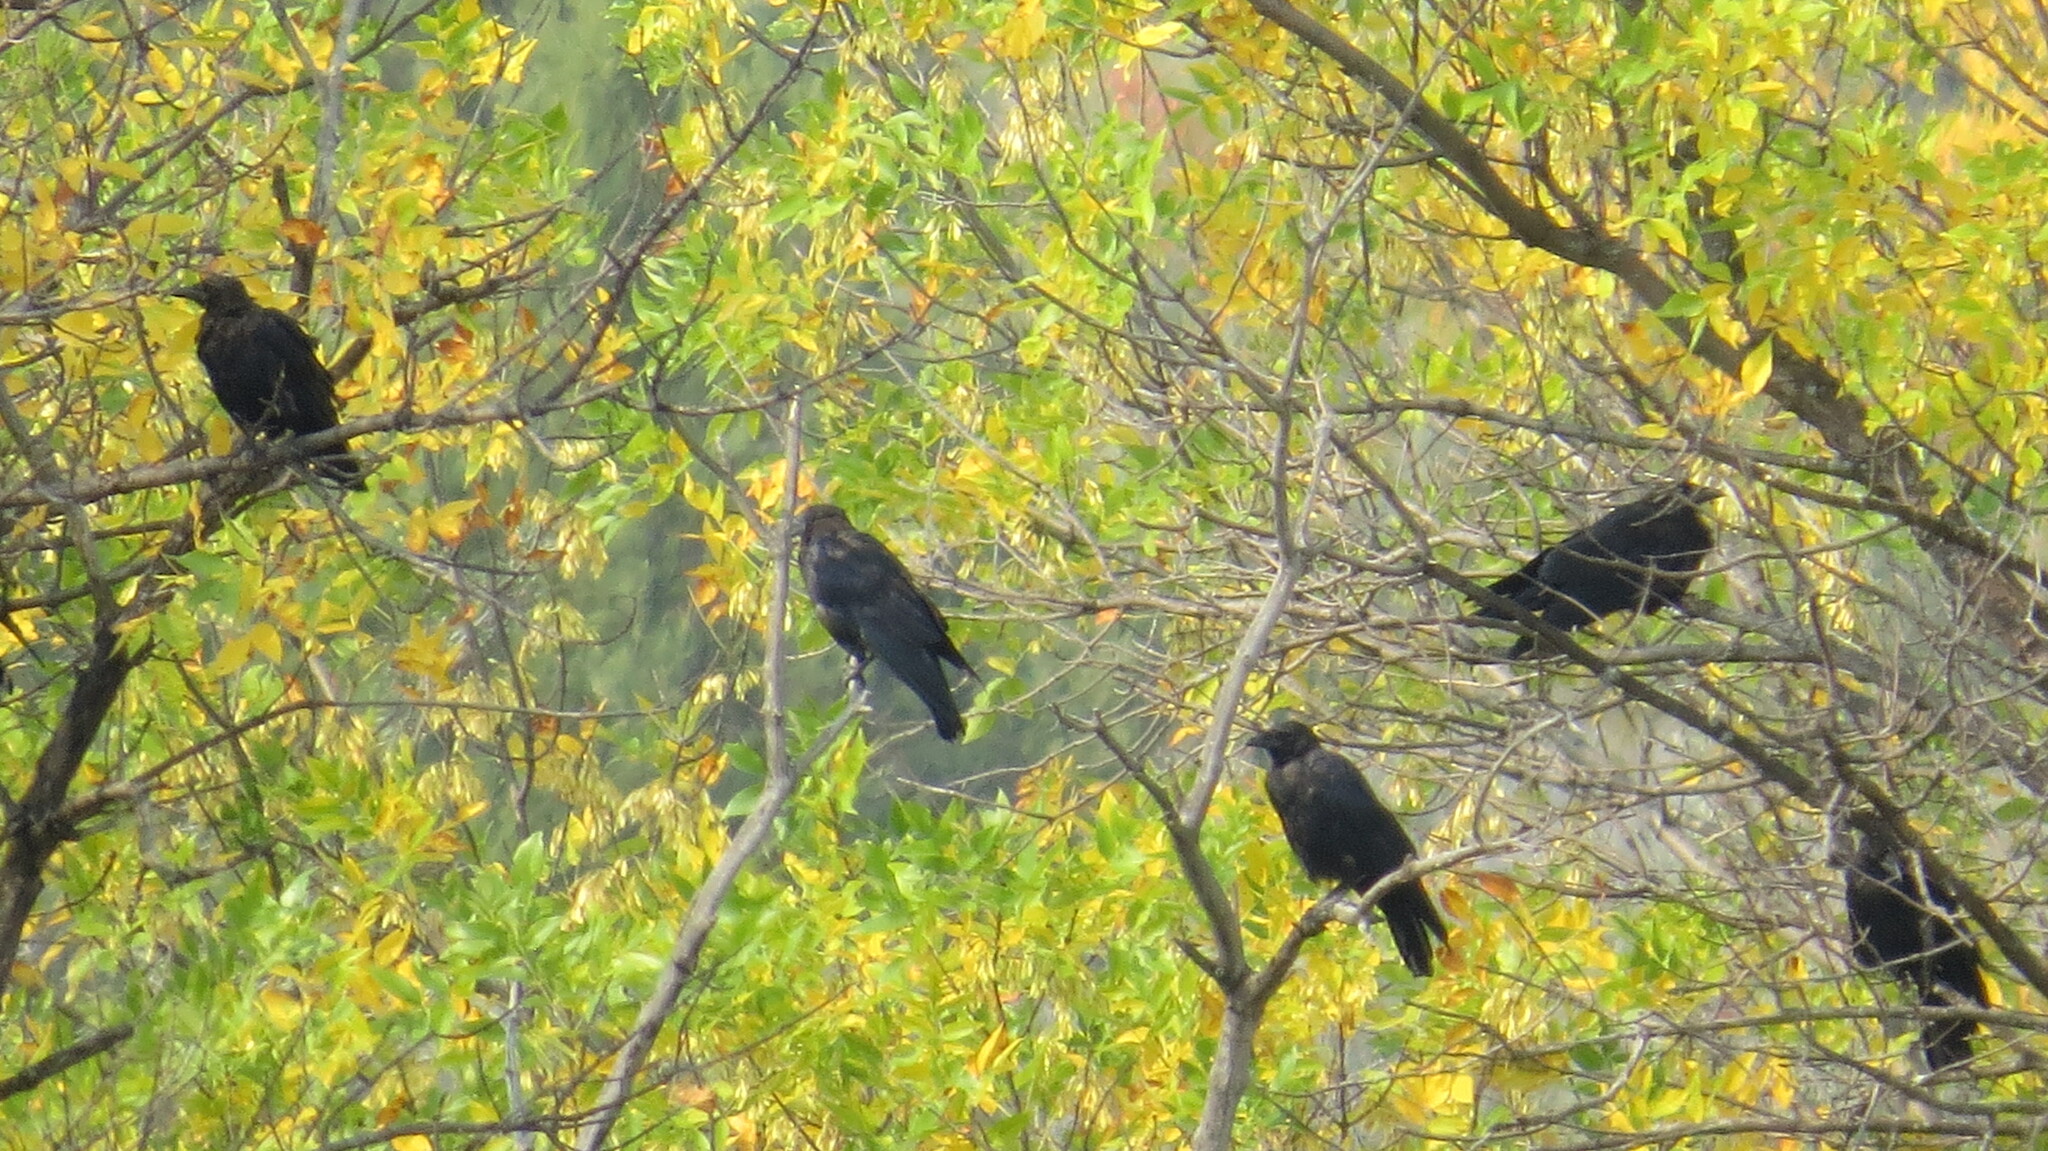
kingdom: Animalia
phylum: Chordata
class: Aves
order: Passeriformes
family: Corvidae
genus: Corvus
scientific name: Corvus brachyrhynchos
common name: American crow
